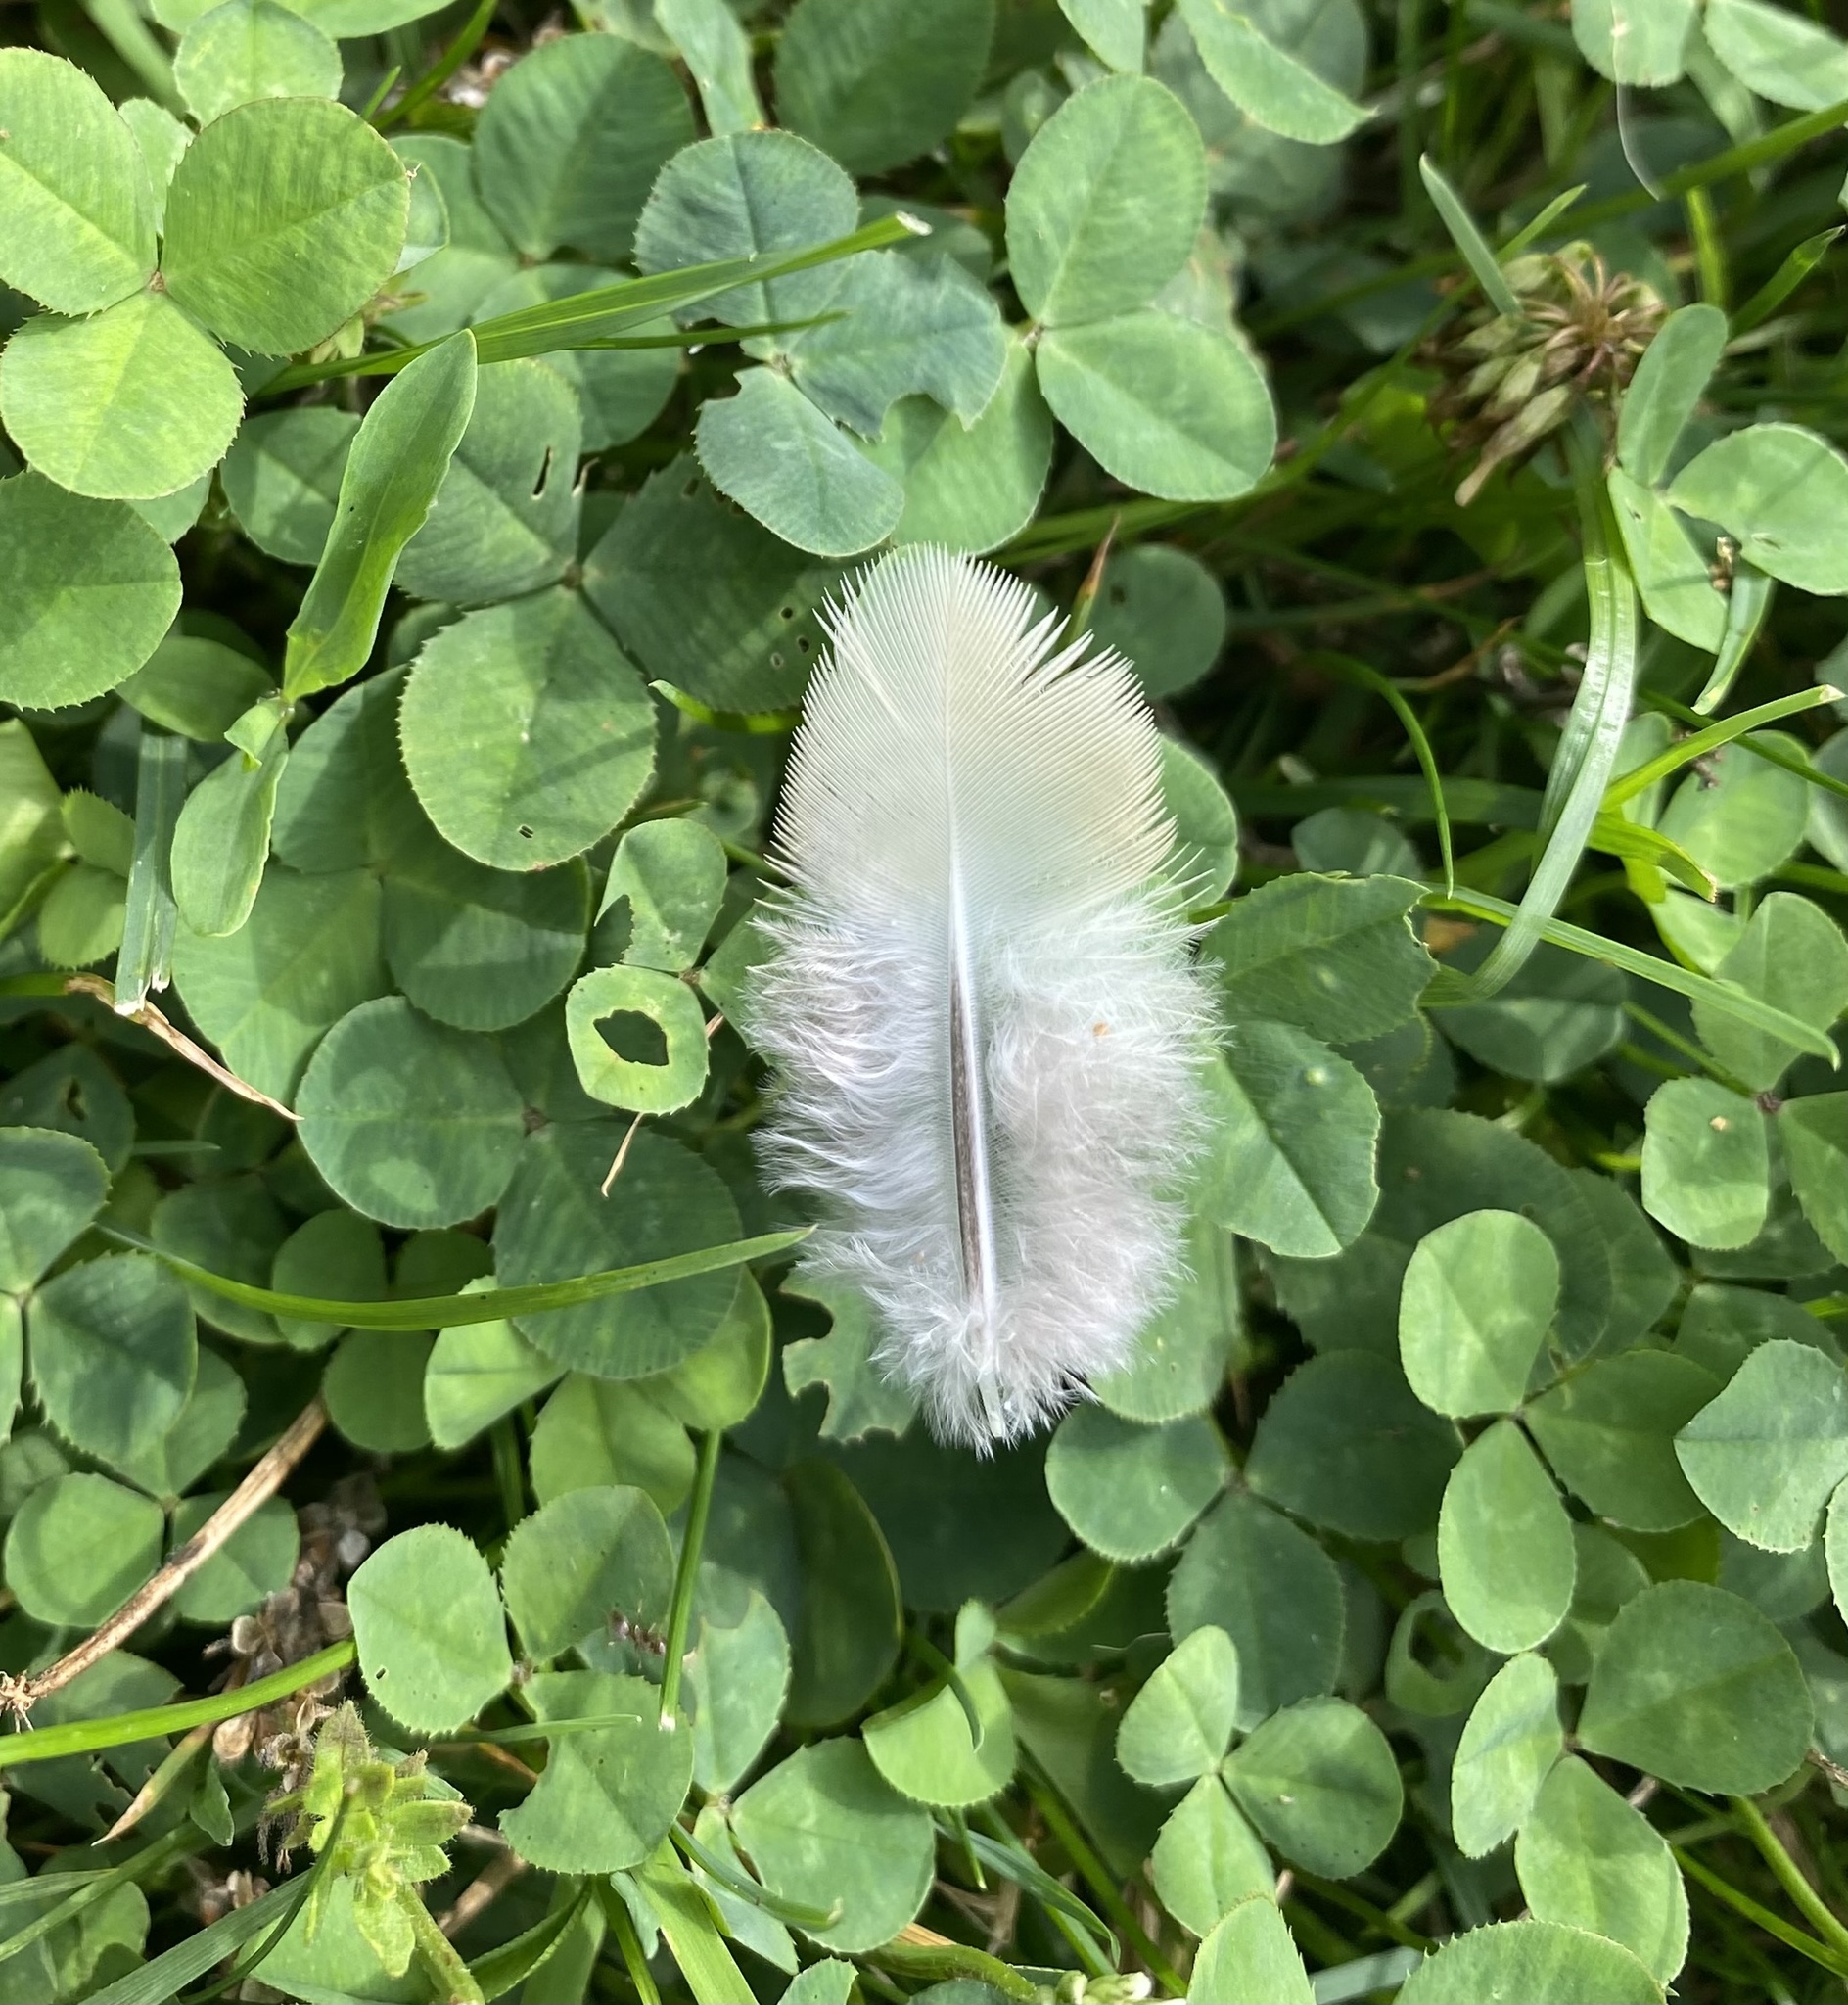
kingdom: Animalia
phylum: Chordata
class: Aves
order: Columbiformes
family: Columbidae
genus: Zenaida
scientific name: Zenaida macroura
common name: Mourning dove
